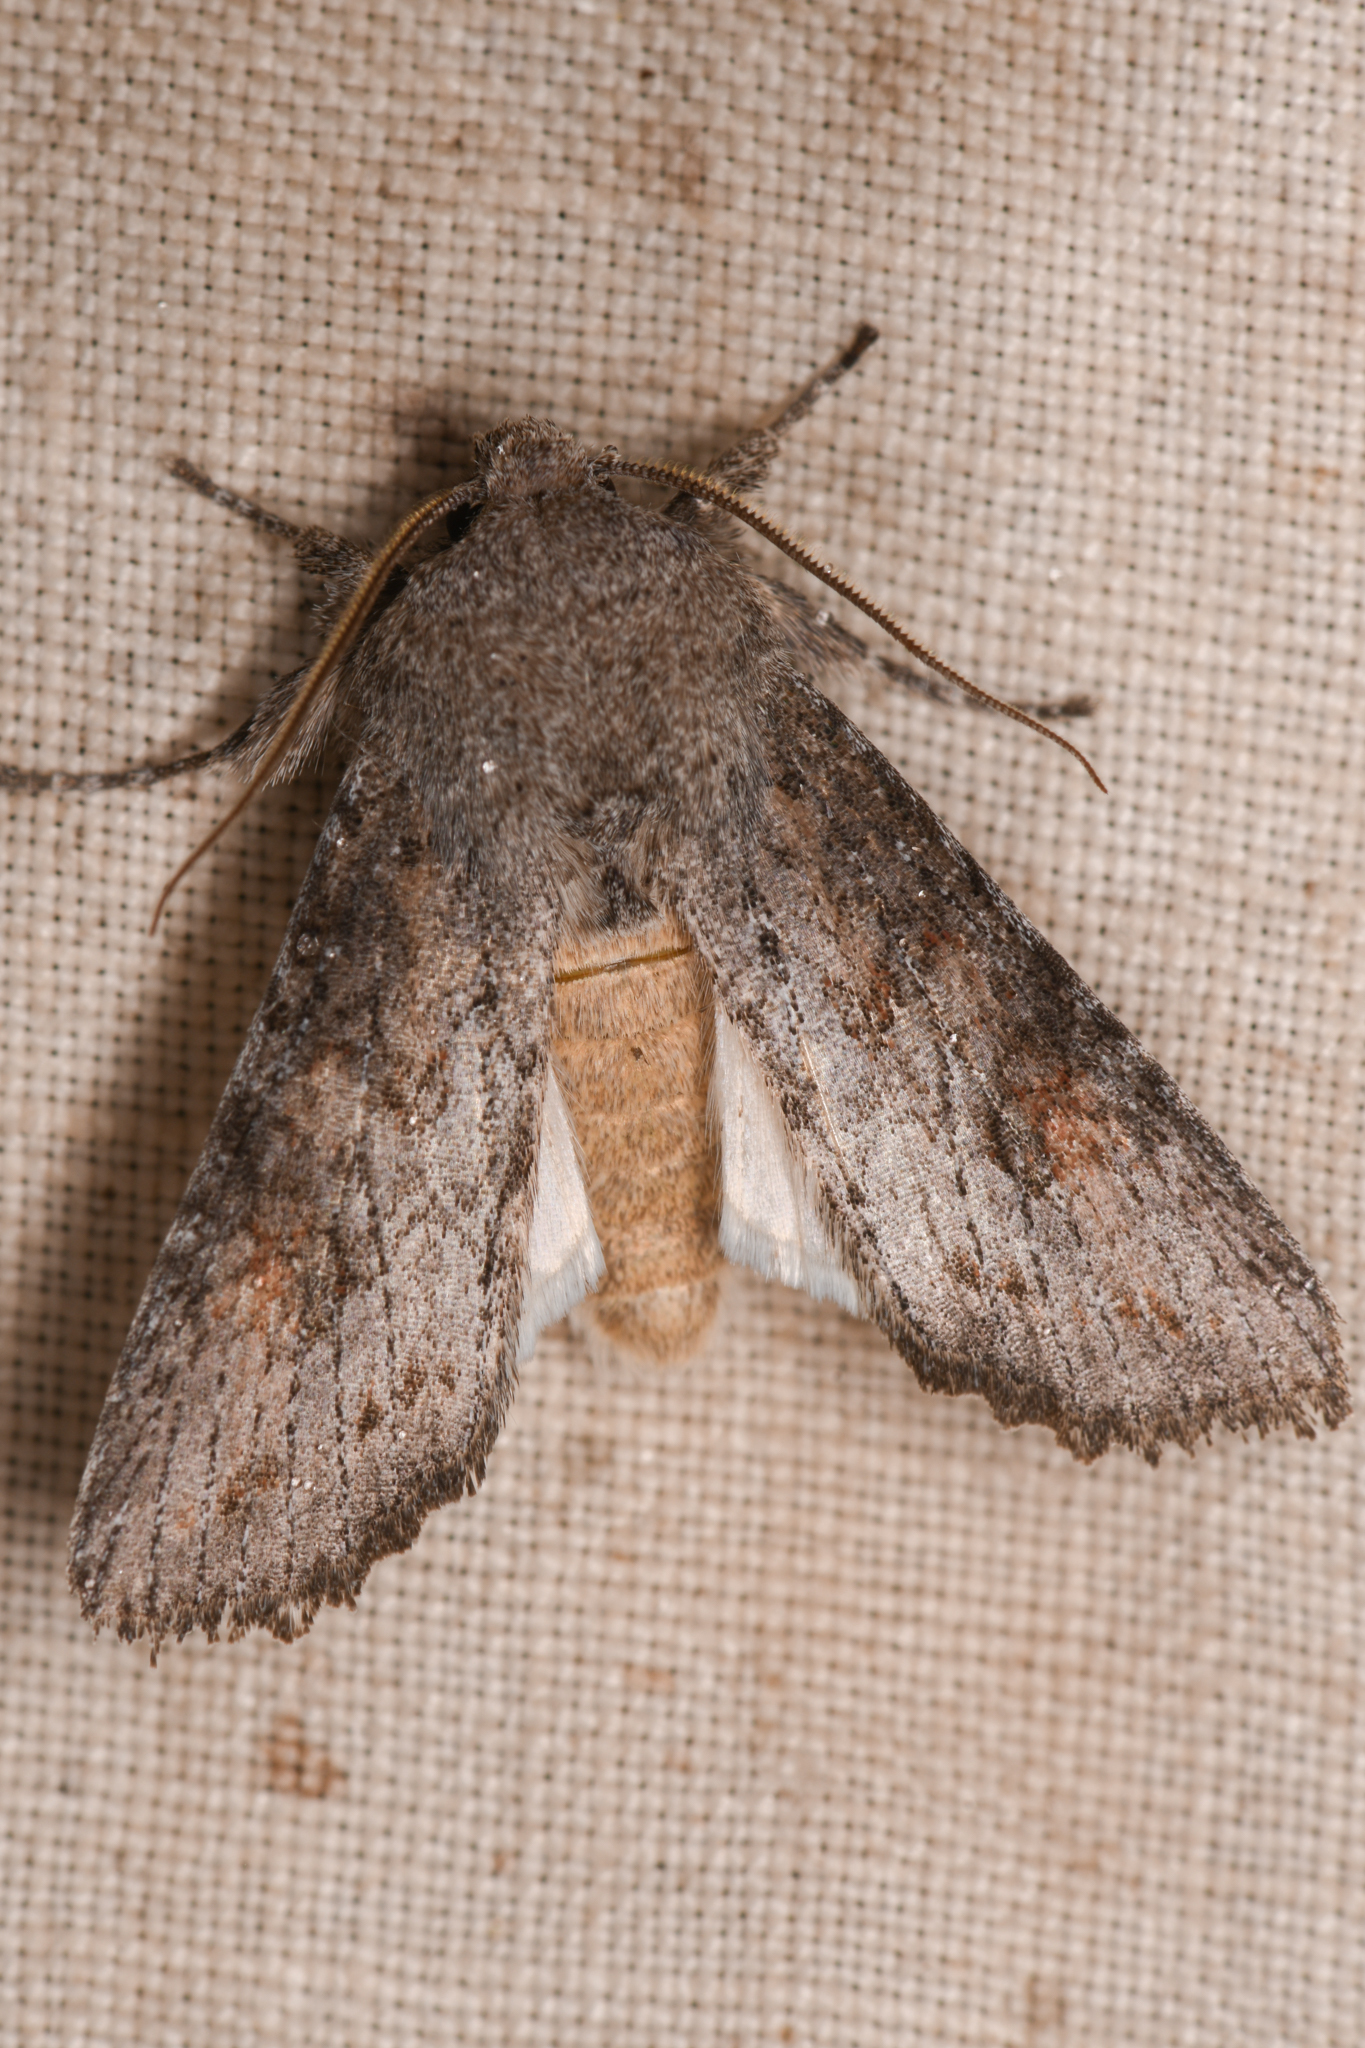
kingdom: Animalia
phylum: Arthropoda
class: Insecta
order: Lepidoptera
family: Noctuidae
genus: Egira
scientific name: Egira curialis
